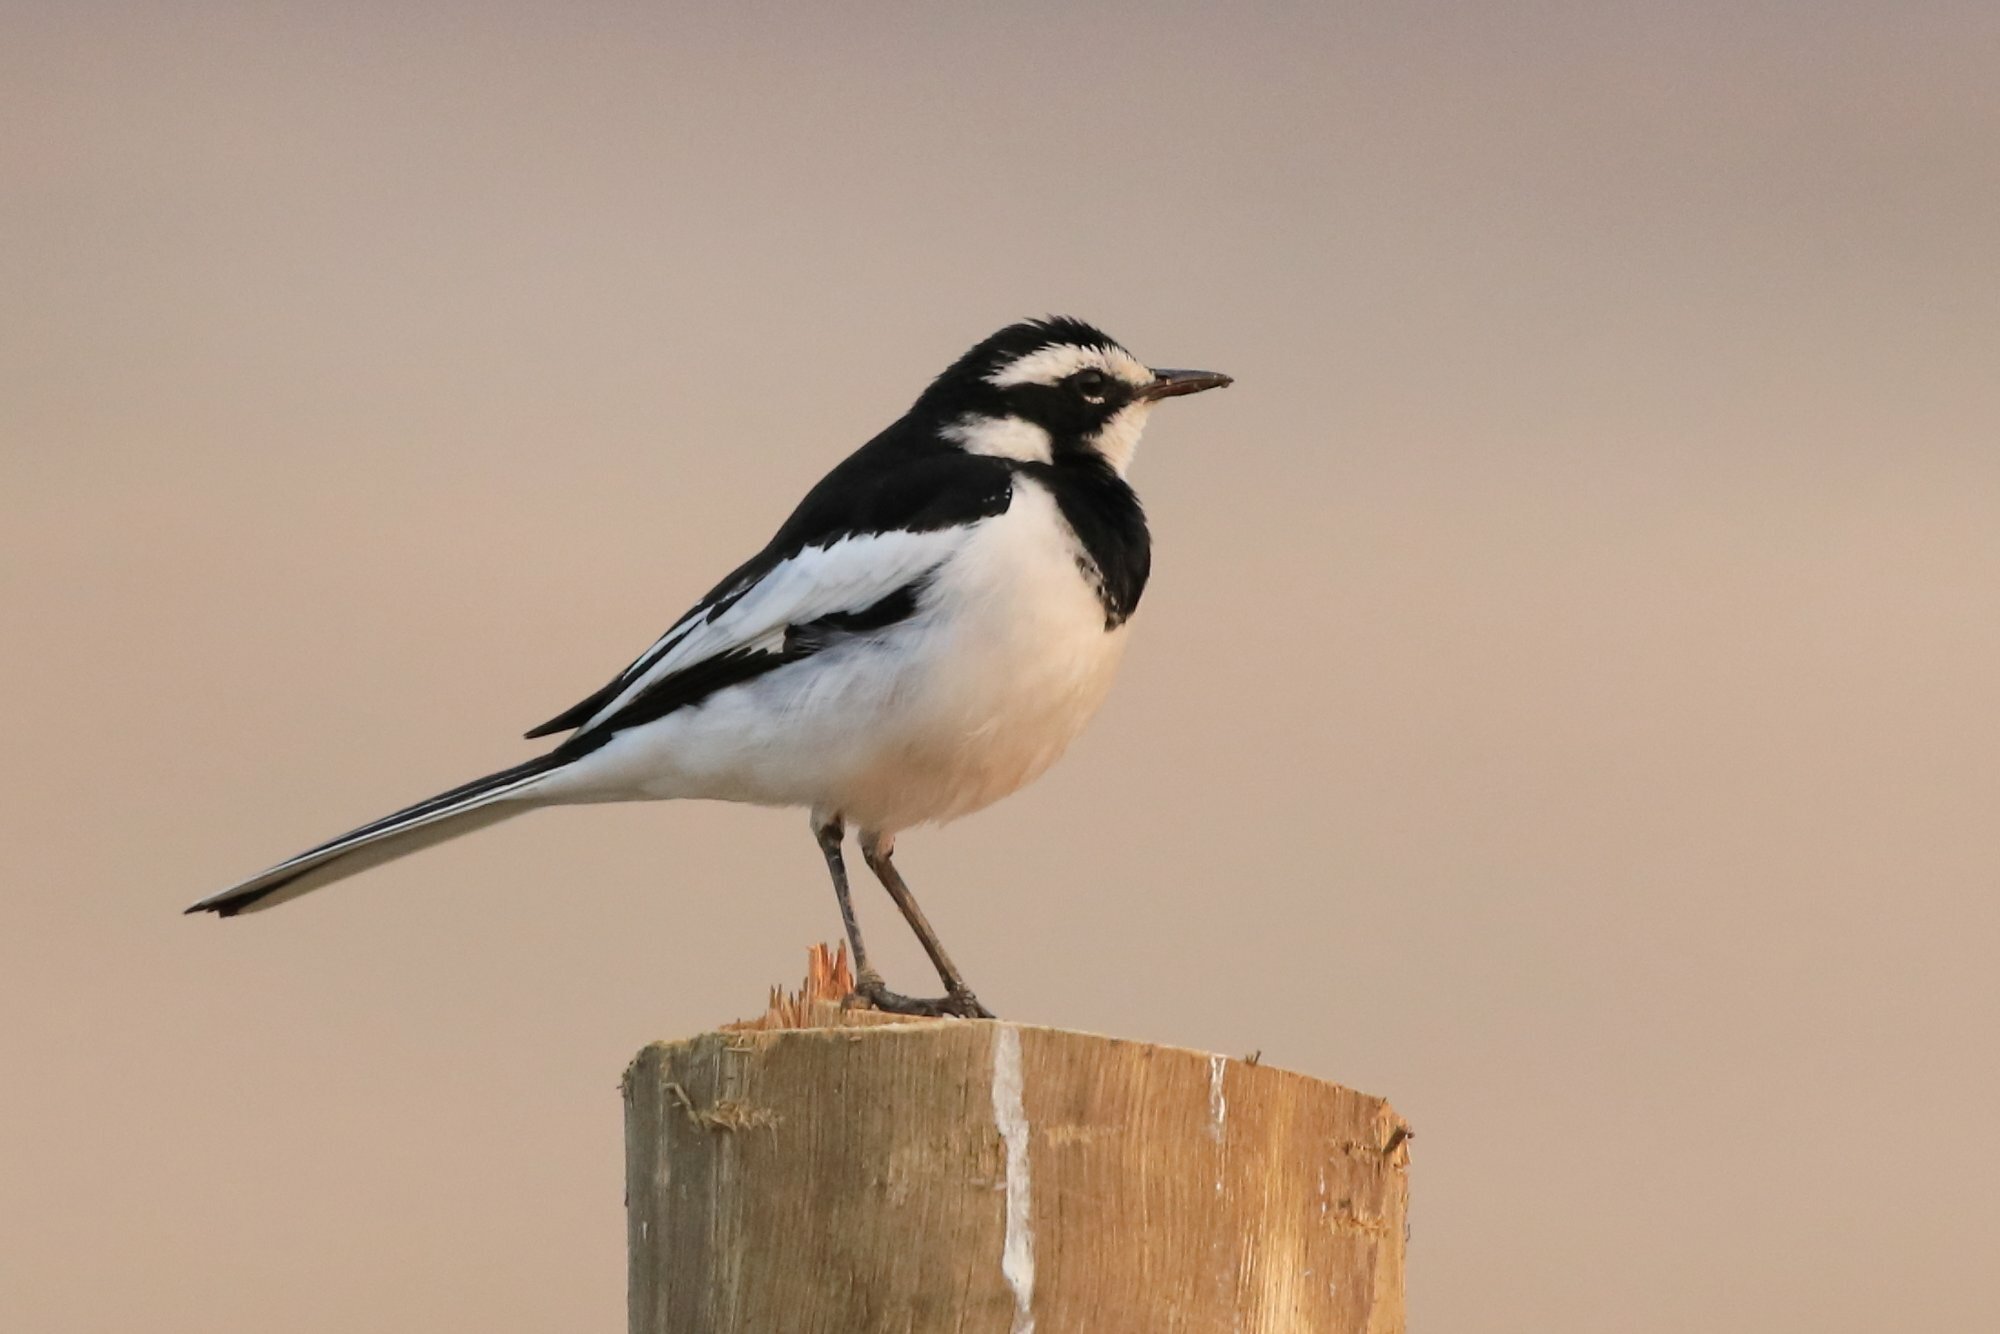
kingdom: Animalia
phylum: Chordata
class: Aves
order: Passeriformes
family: Motacillidae
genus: Motacilla
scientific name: Motacilla aguimp
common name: African pied wagtail
